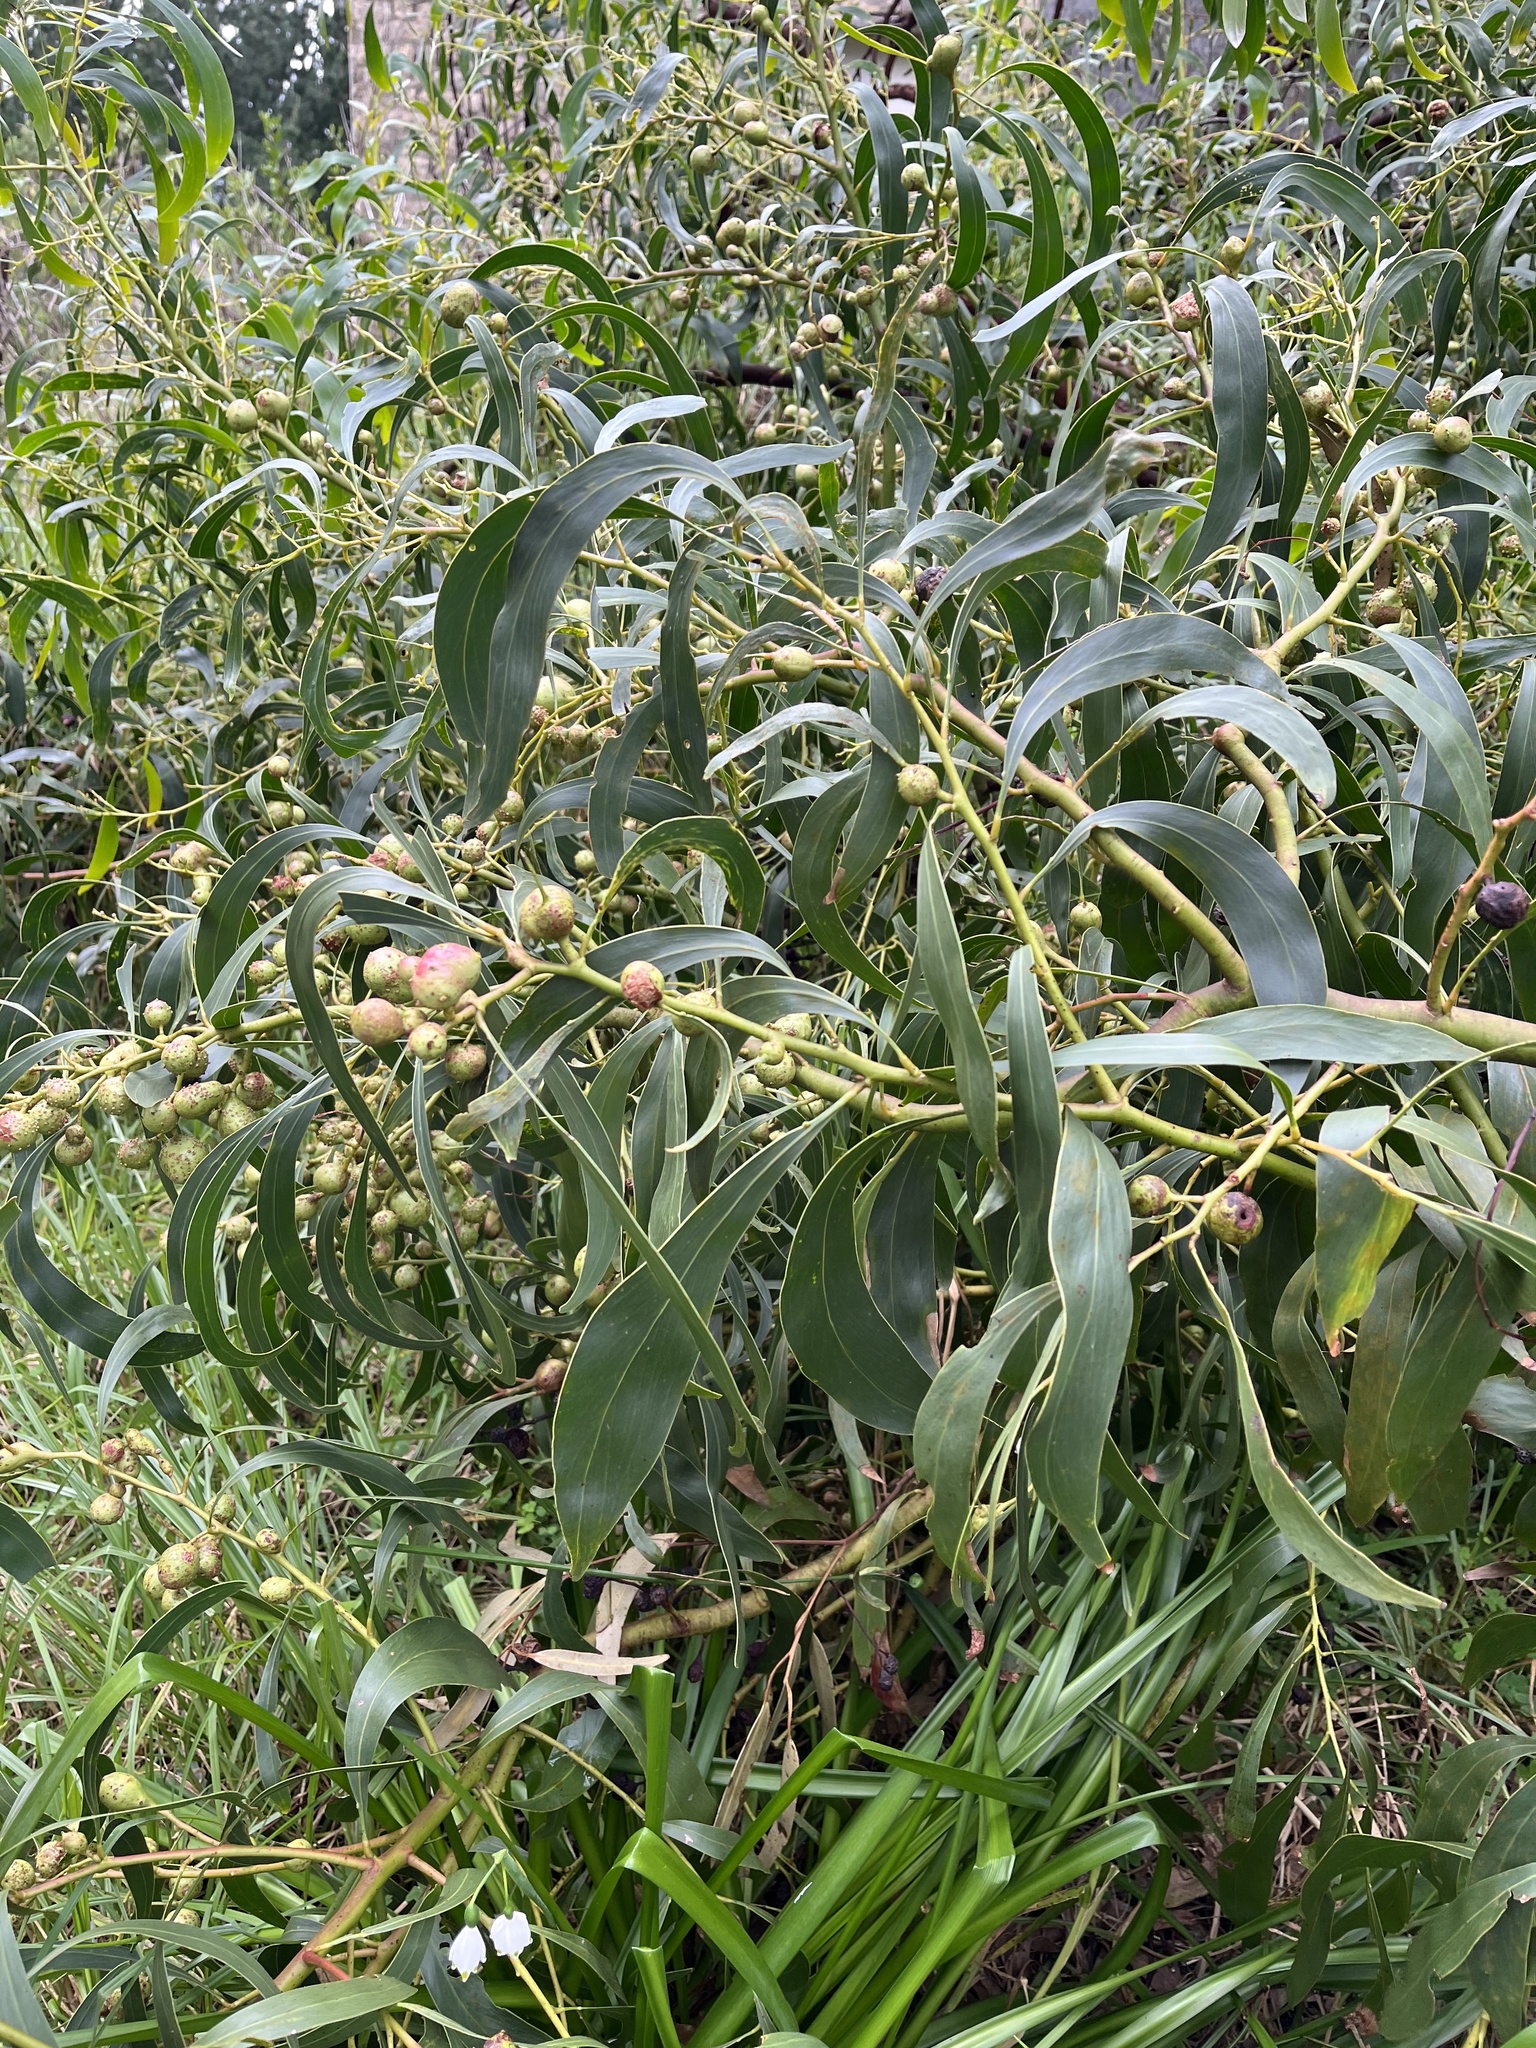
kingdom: Animalia
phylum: Arthropoda
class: Insecta
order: Hymenoptera
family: Pteromalidae
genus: Trichilogaster
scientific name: Trichilogaster signiventris
